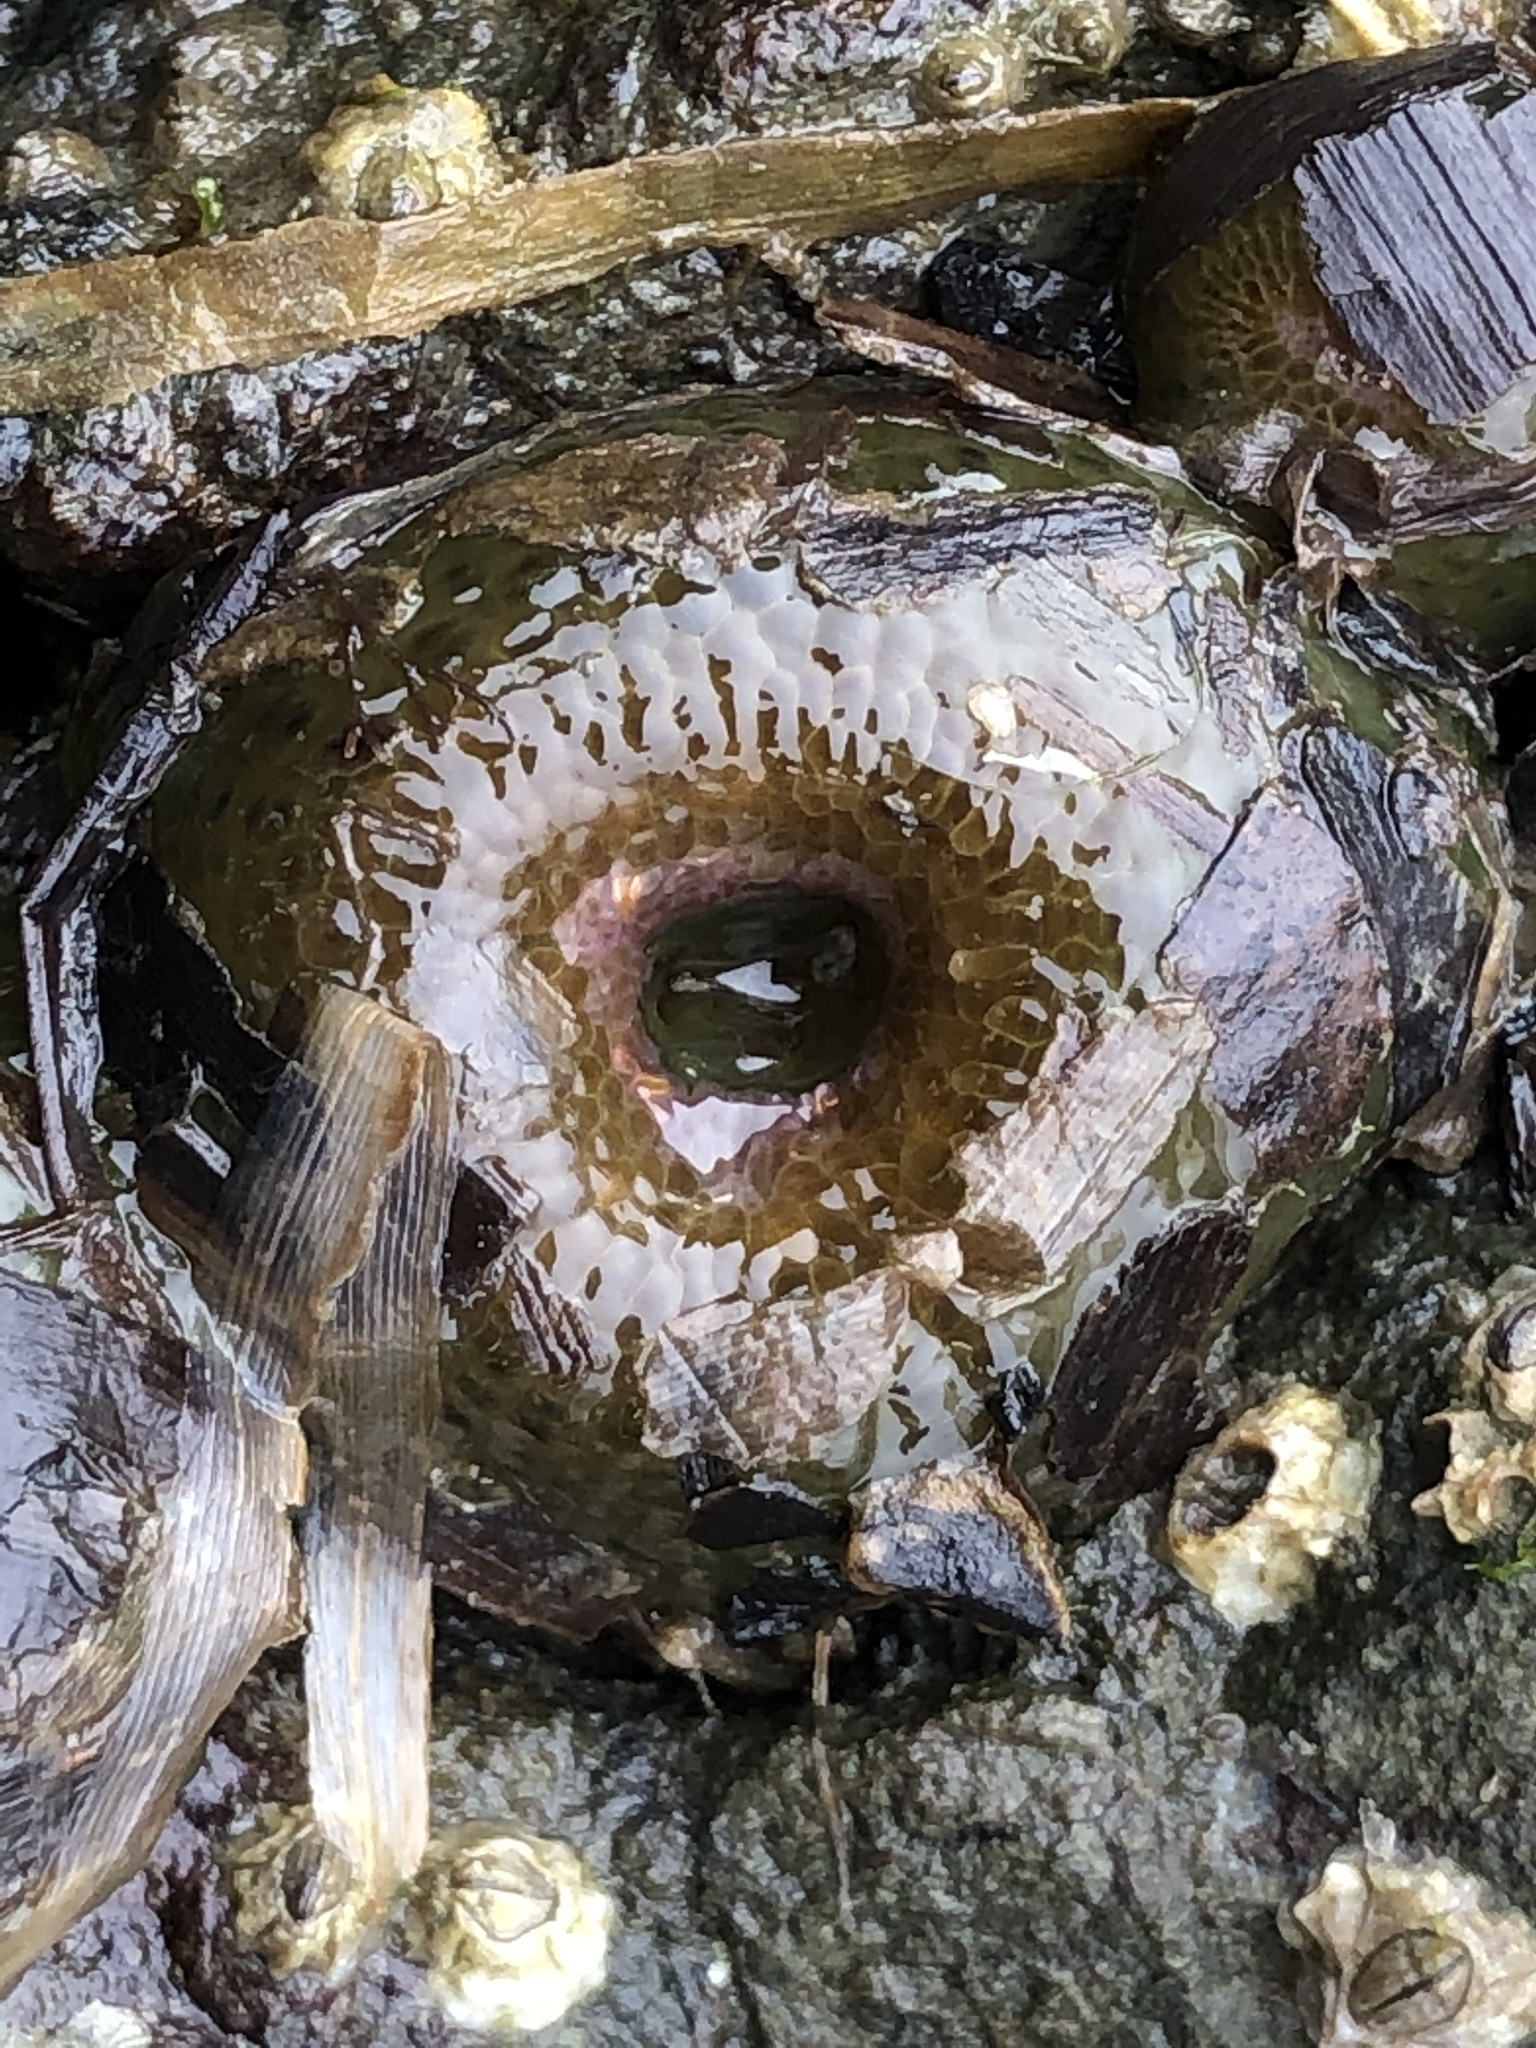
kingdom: Animalia
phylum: Cnidaria
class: Anthozoa
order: Actiniaria
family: Actiniidae
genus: Anthopleura
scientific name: Anthopleura elegantissima
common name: Clonal anemone
